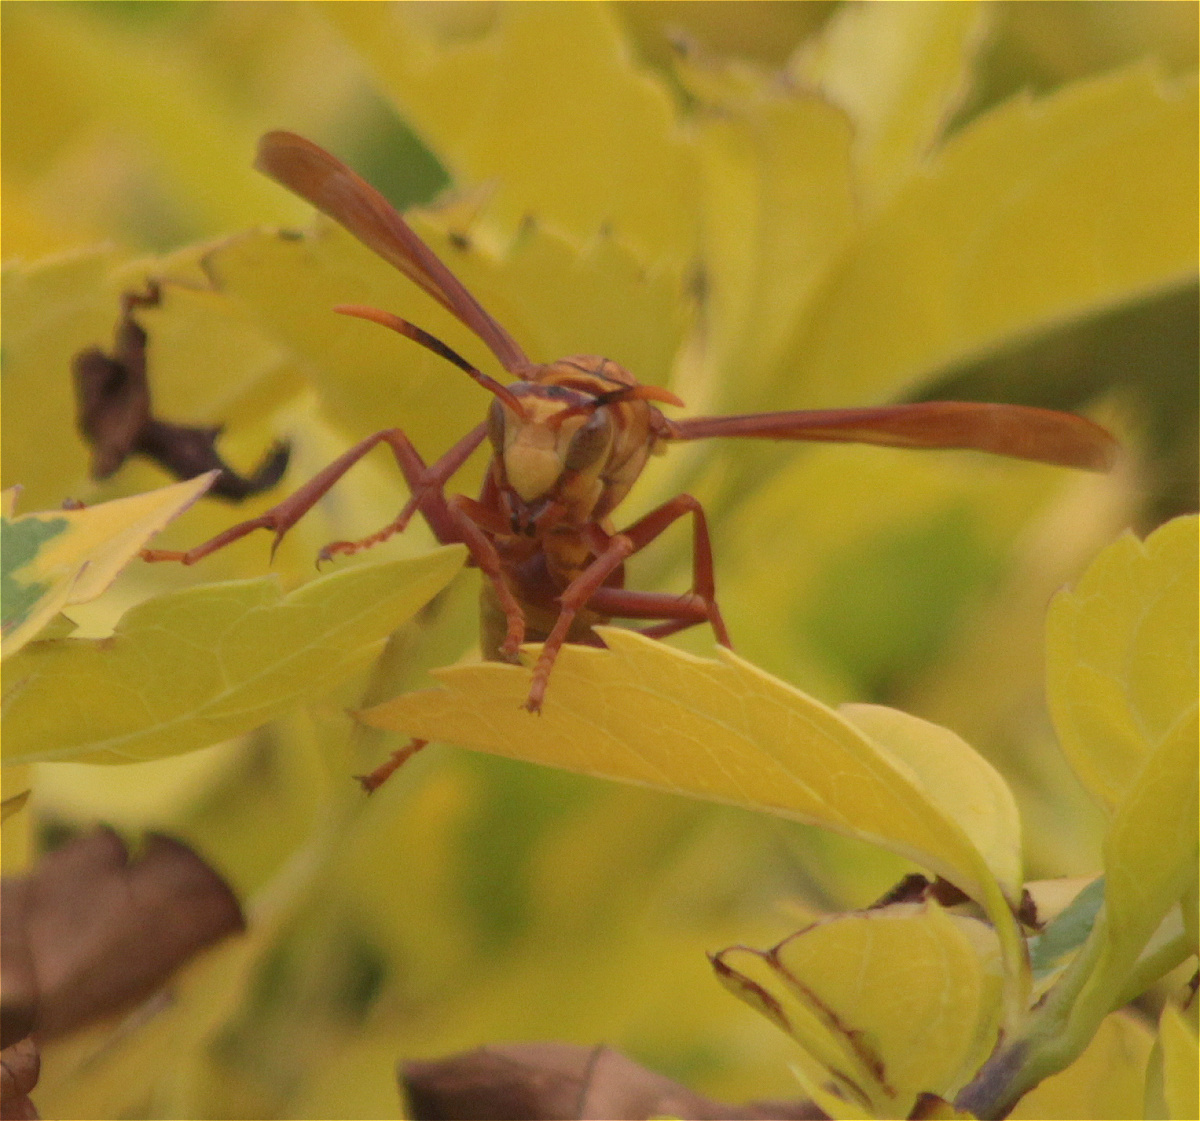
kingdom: Animalia
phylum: Arthropoda
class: Insecta
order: Hymenoptera
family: Eumenidae
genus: Polistes
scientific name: Polistes major
